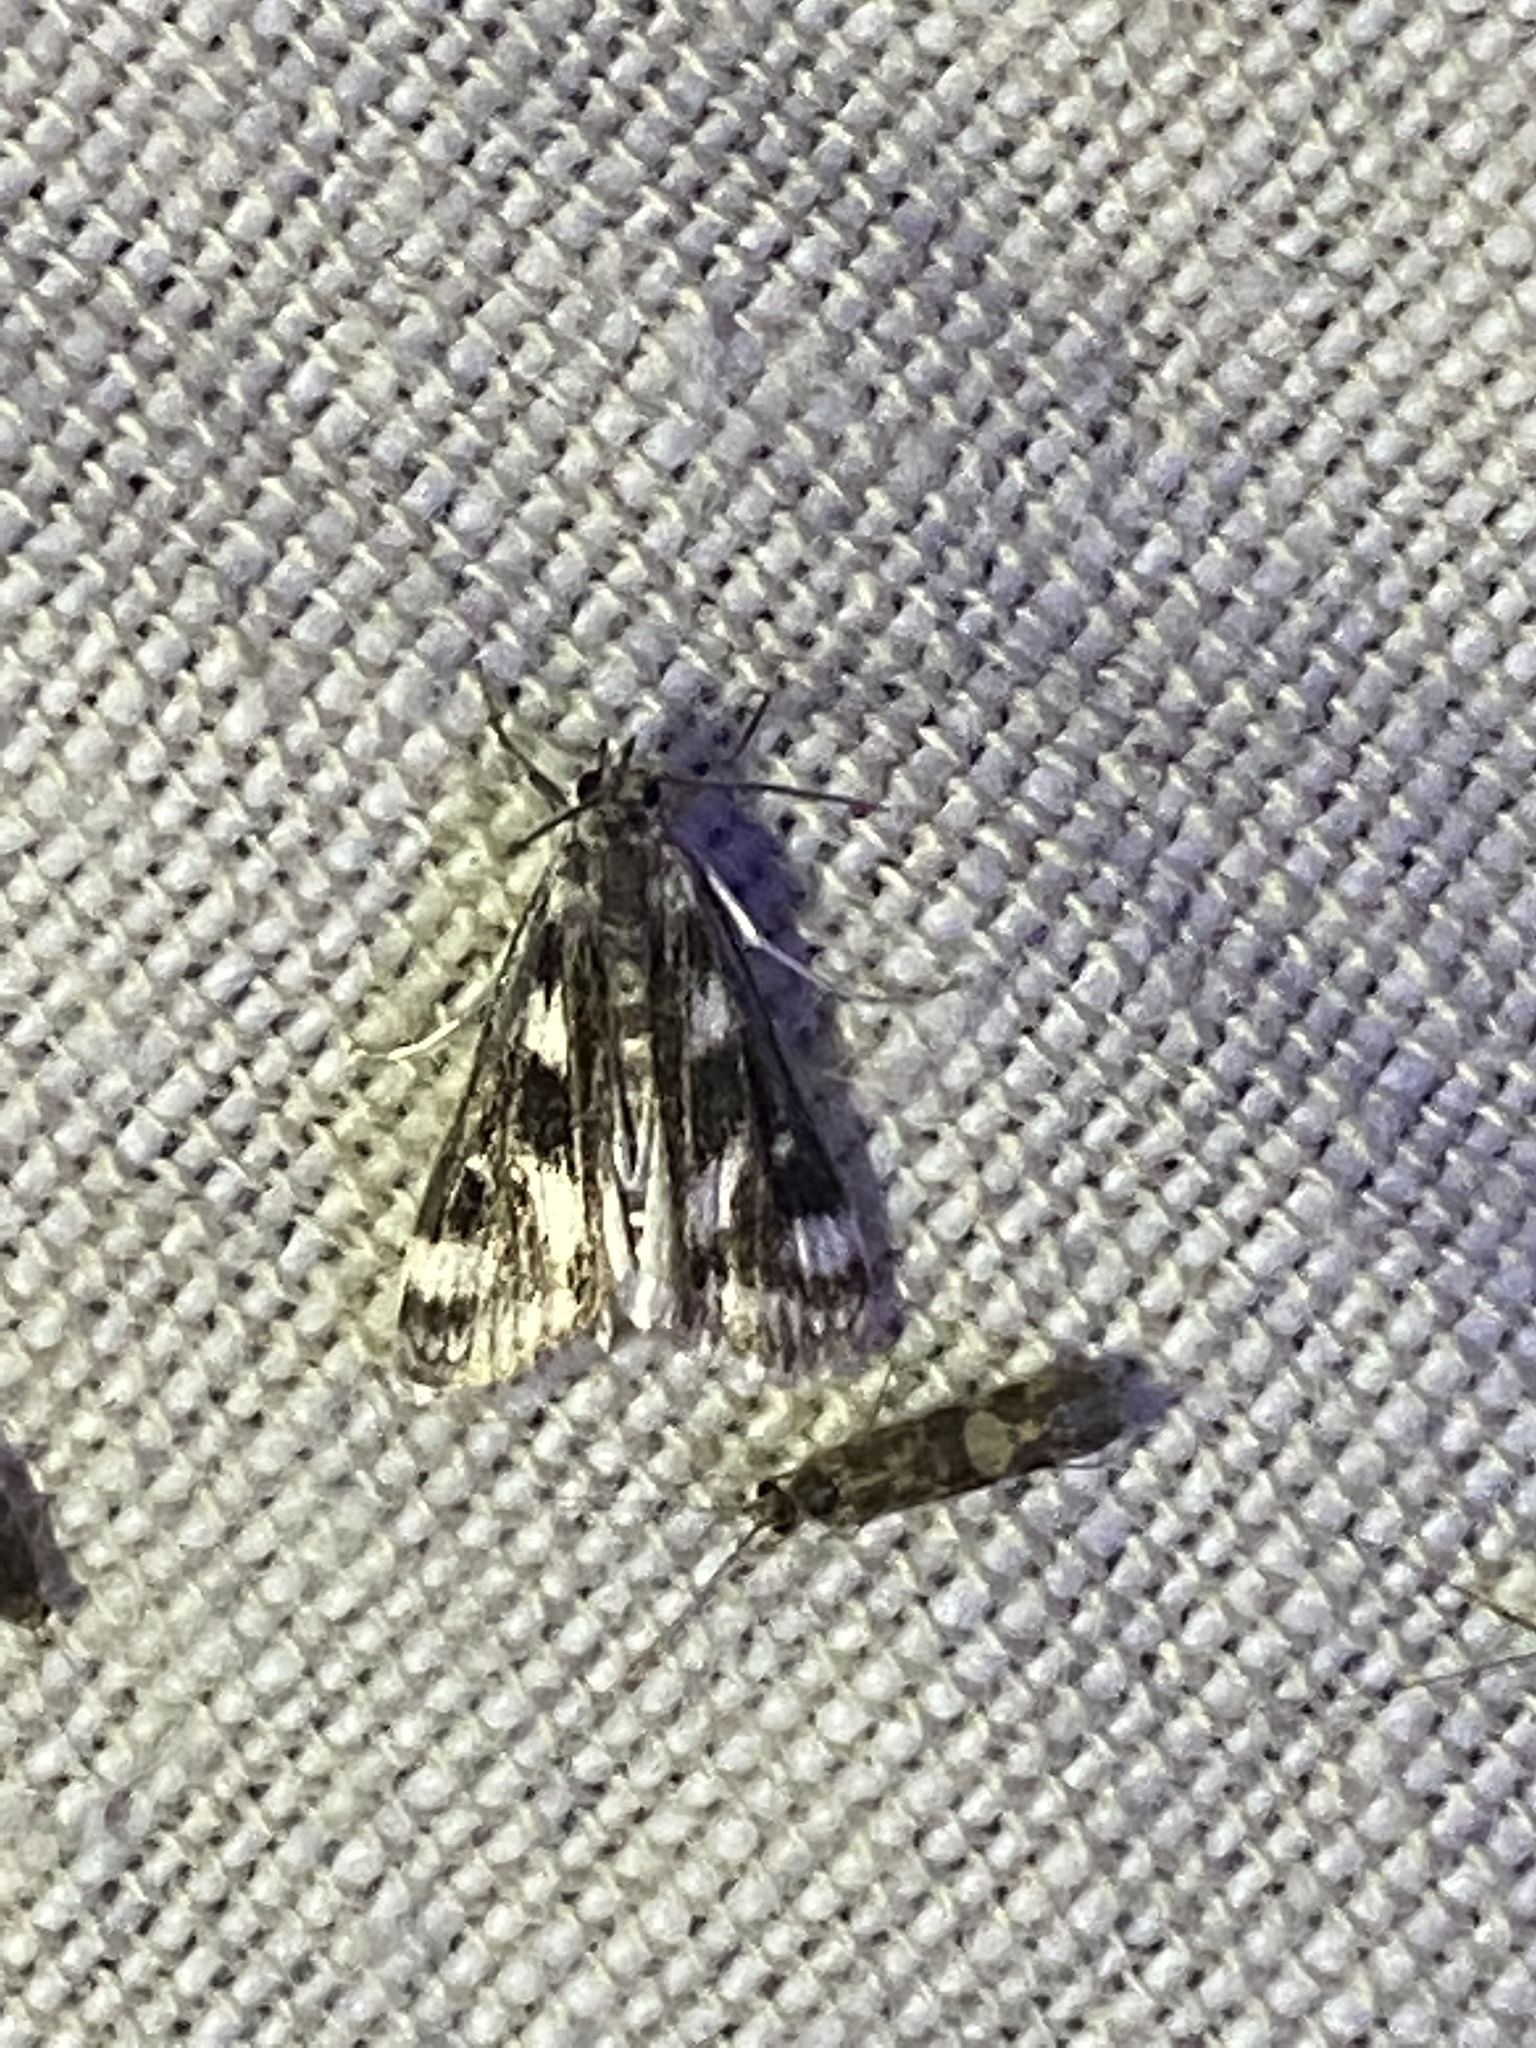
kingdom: Animalia
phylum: Arthropoda
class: Insecta
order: Lepidoptera
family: Crambidae
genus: Parapoynx
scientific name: Parapoynx maculalis
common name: Polymorphic pondweed moth
